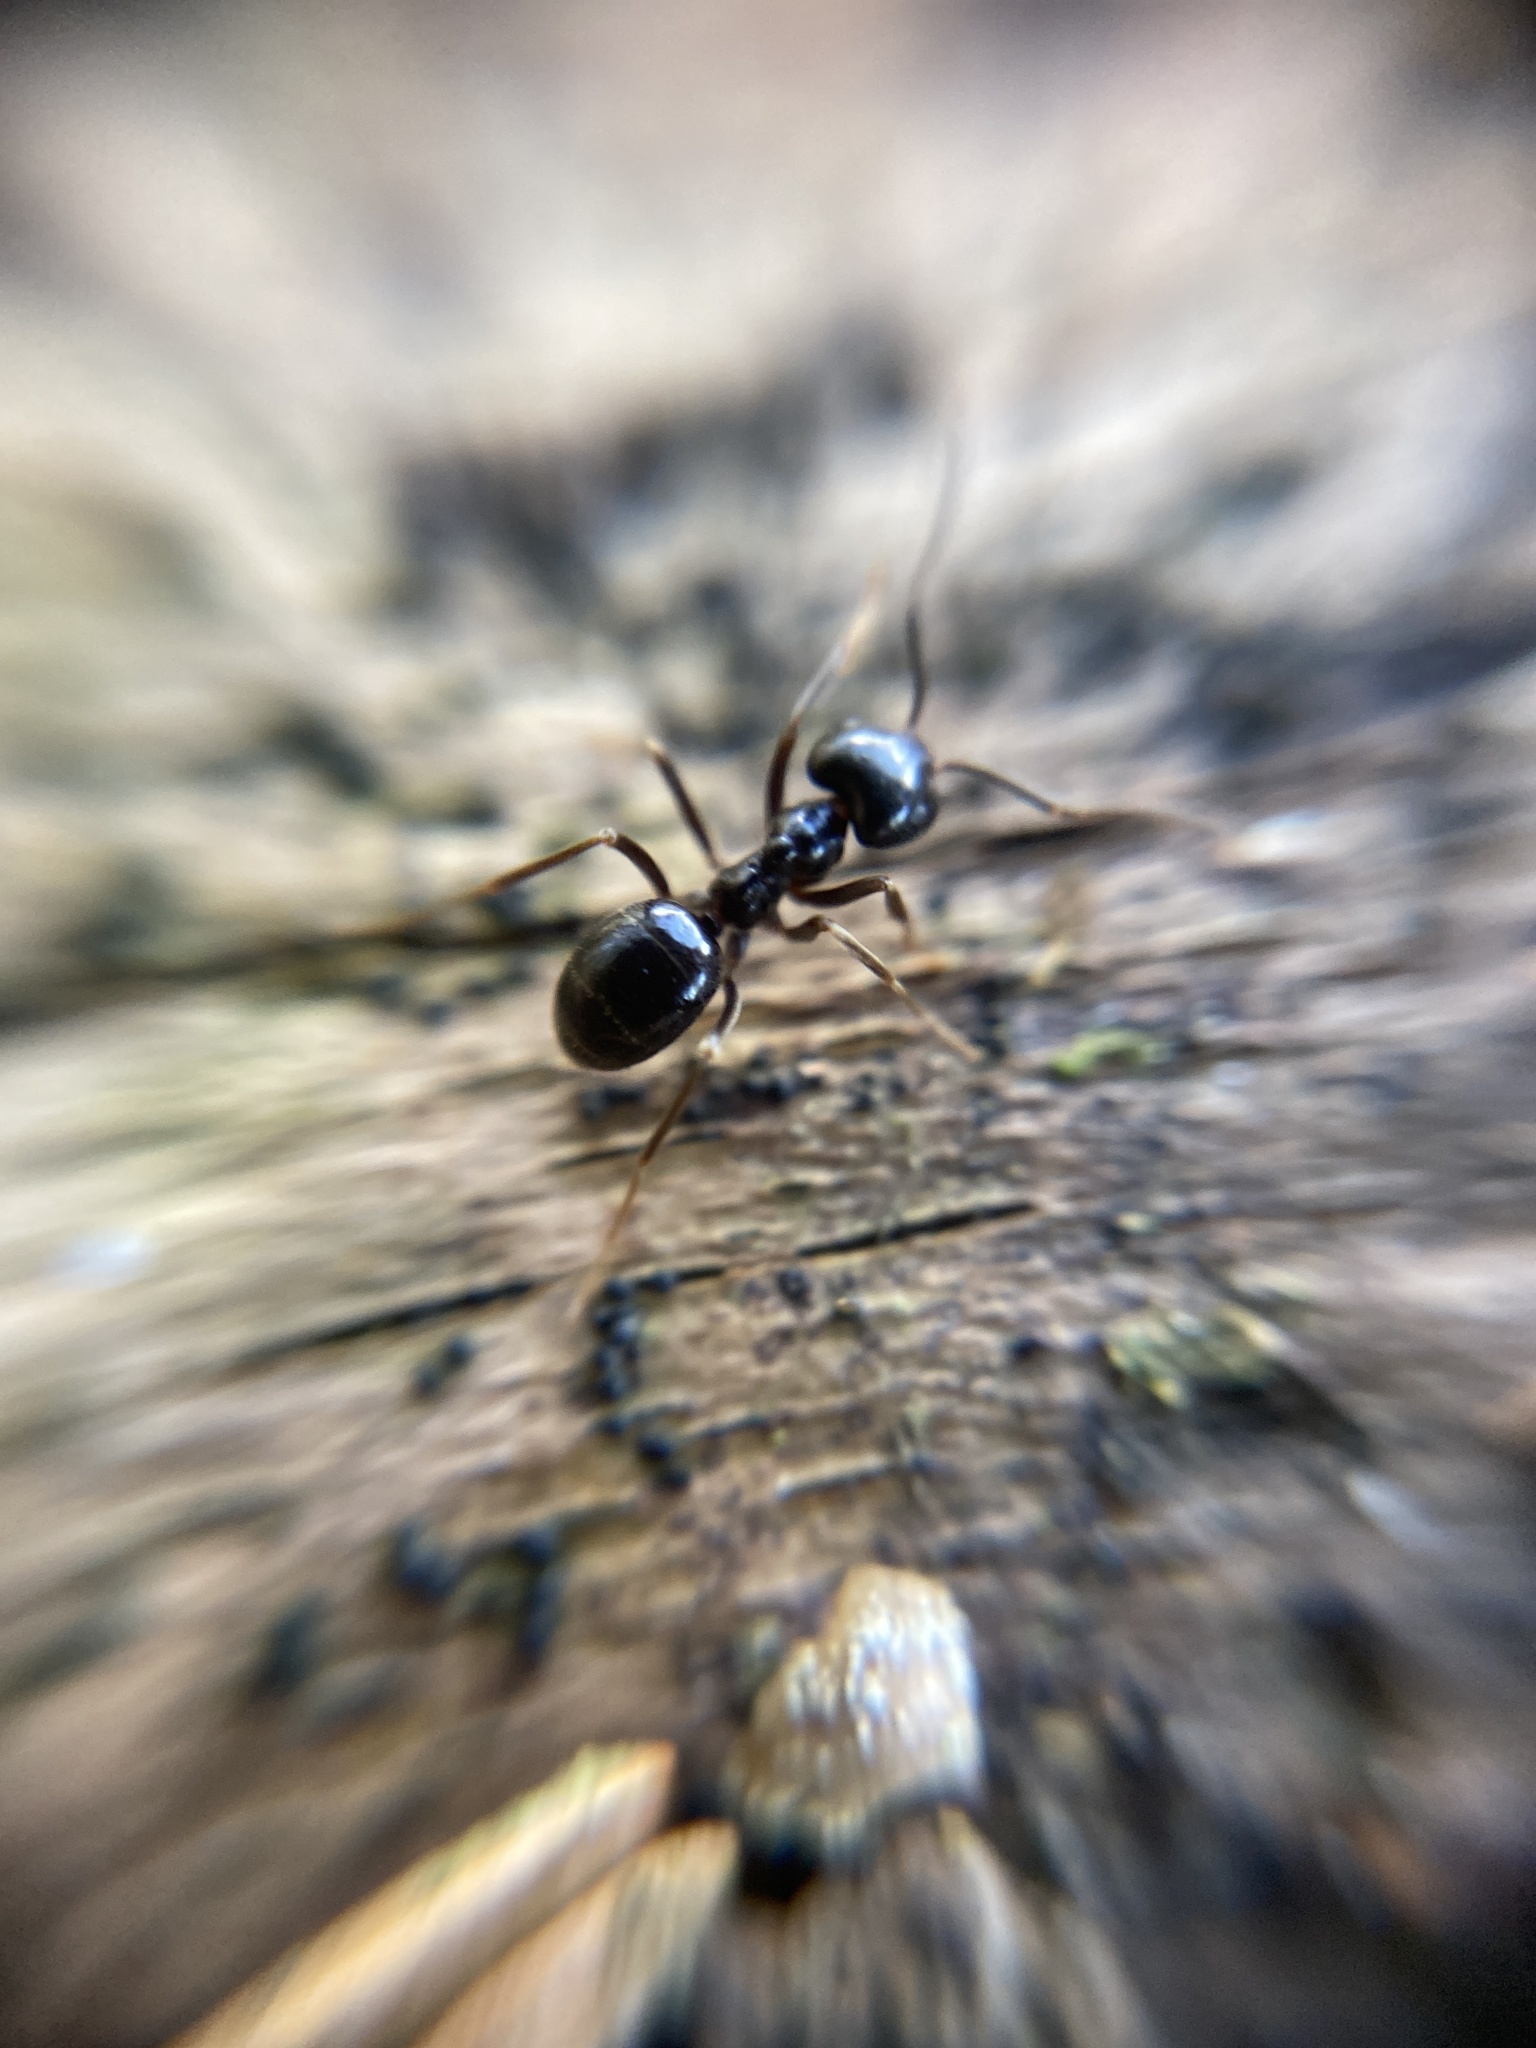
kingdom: Animalia
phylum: Arthropoda
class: Insecta
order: Hymenoptera
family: Formicidae
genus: Lasius
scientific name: Lasius fuliginosus
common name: Jet ant
